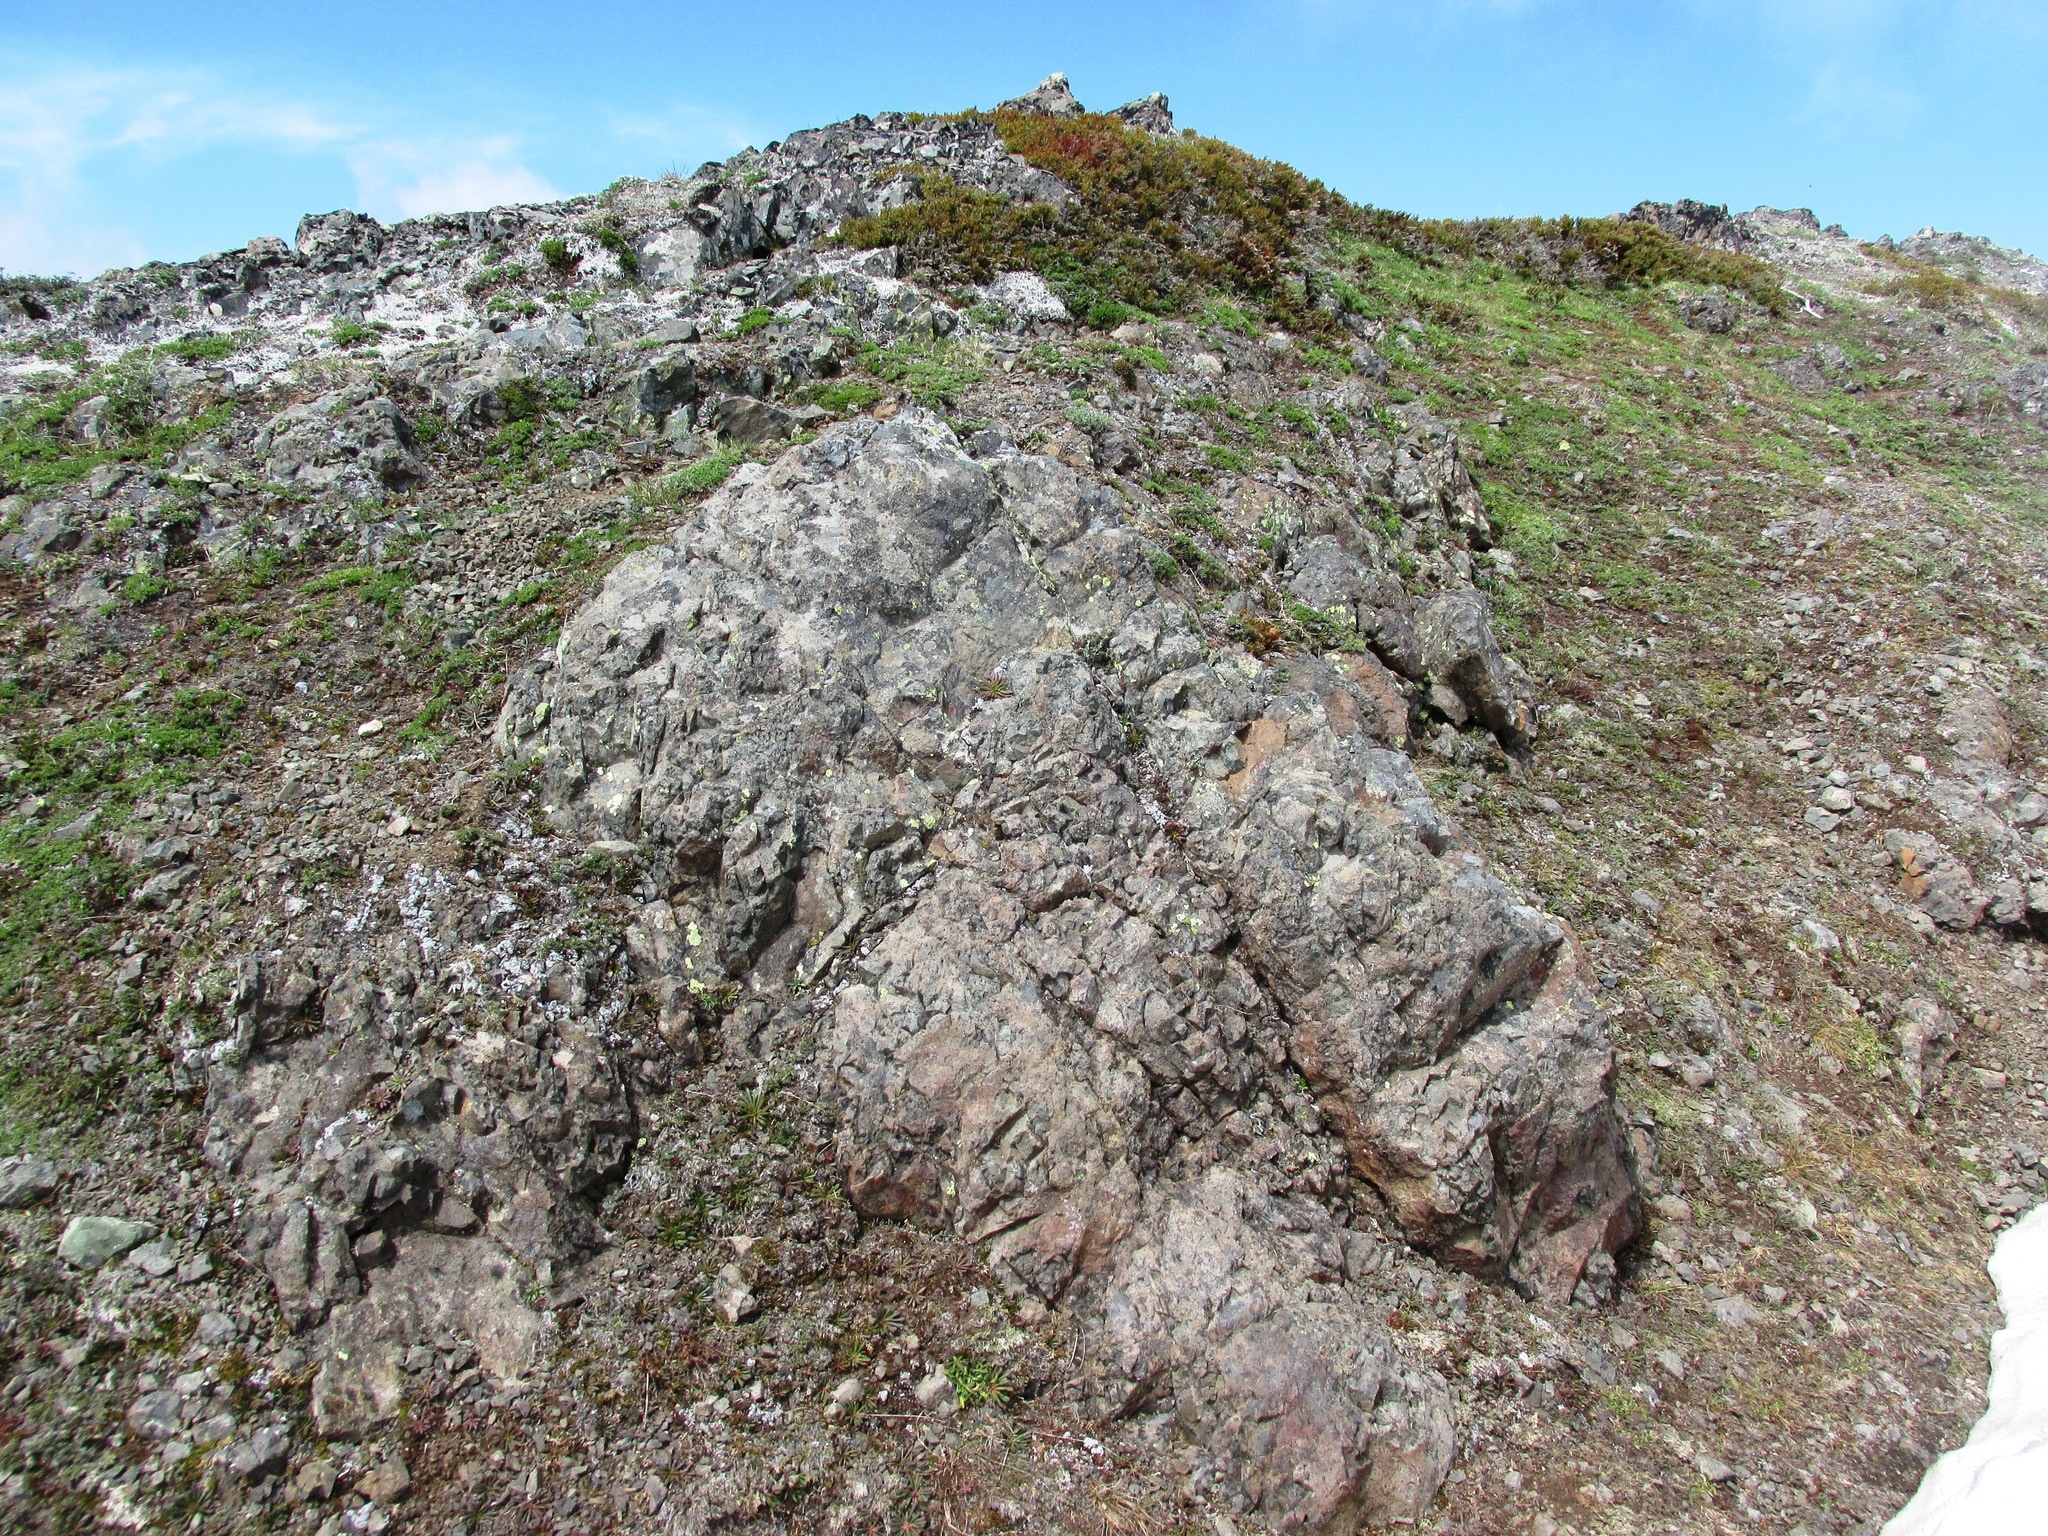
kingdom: Plantae
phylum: Tracheophyta
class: Magnoliopsida
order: Caryophyllales
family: Montiaceae
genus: Lewisia
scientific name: Lewisia columbiana
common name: Columbia lewisia
